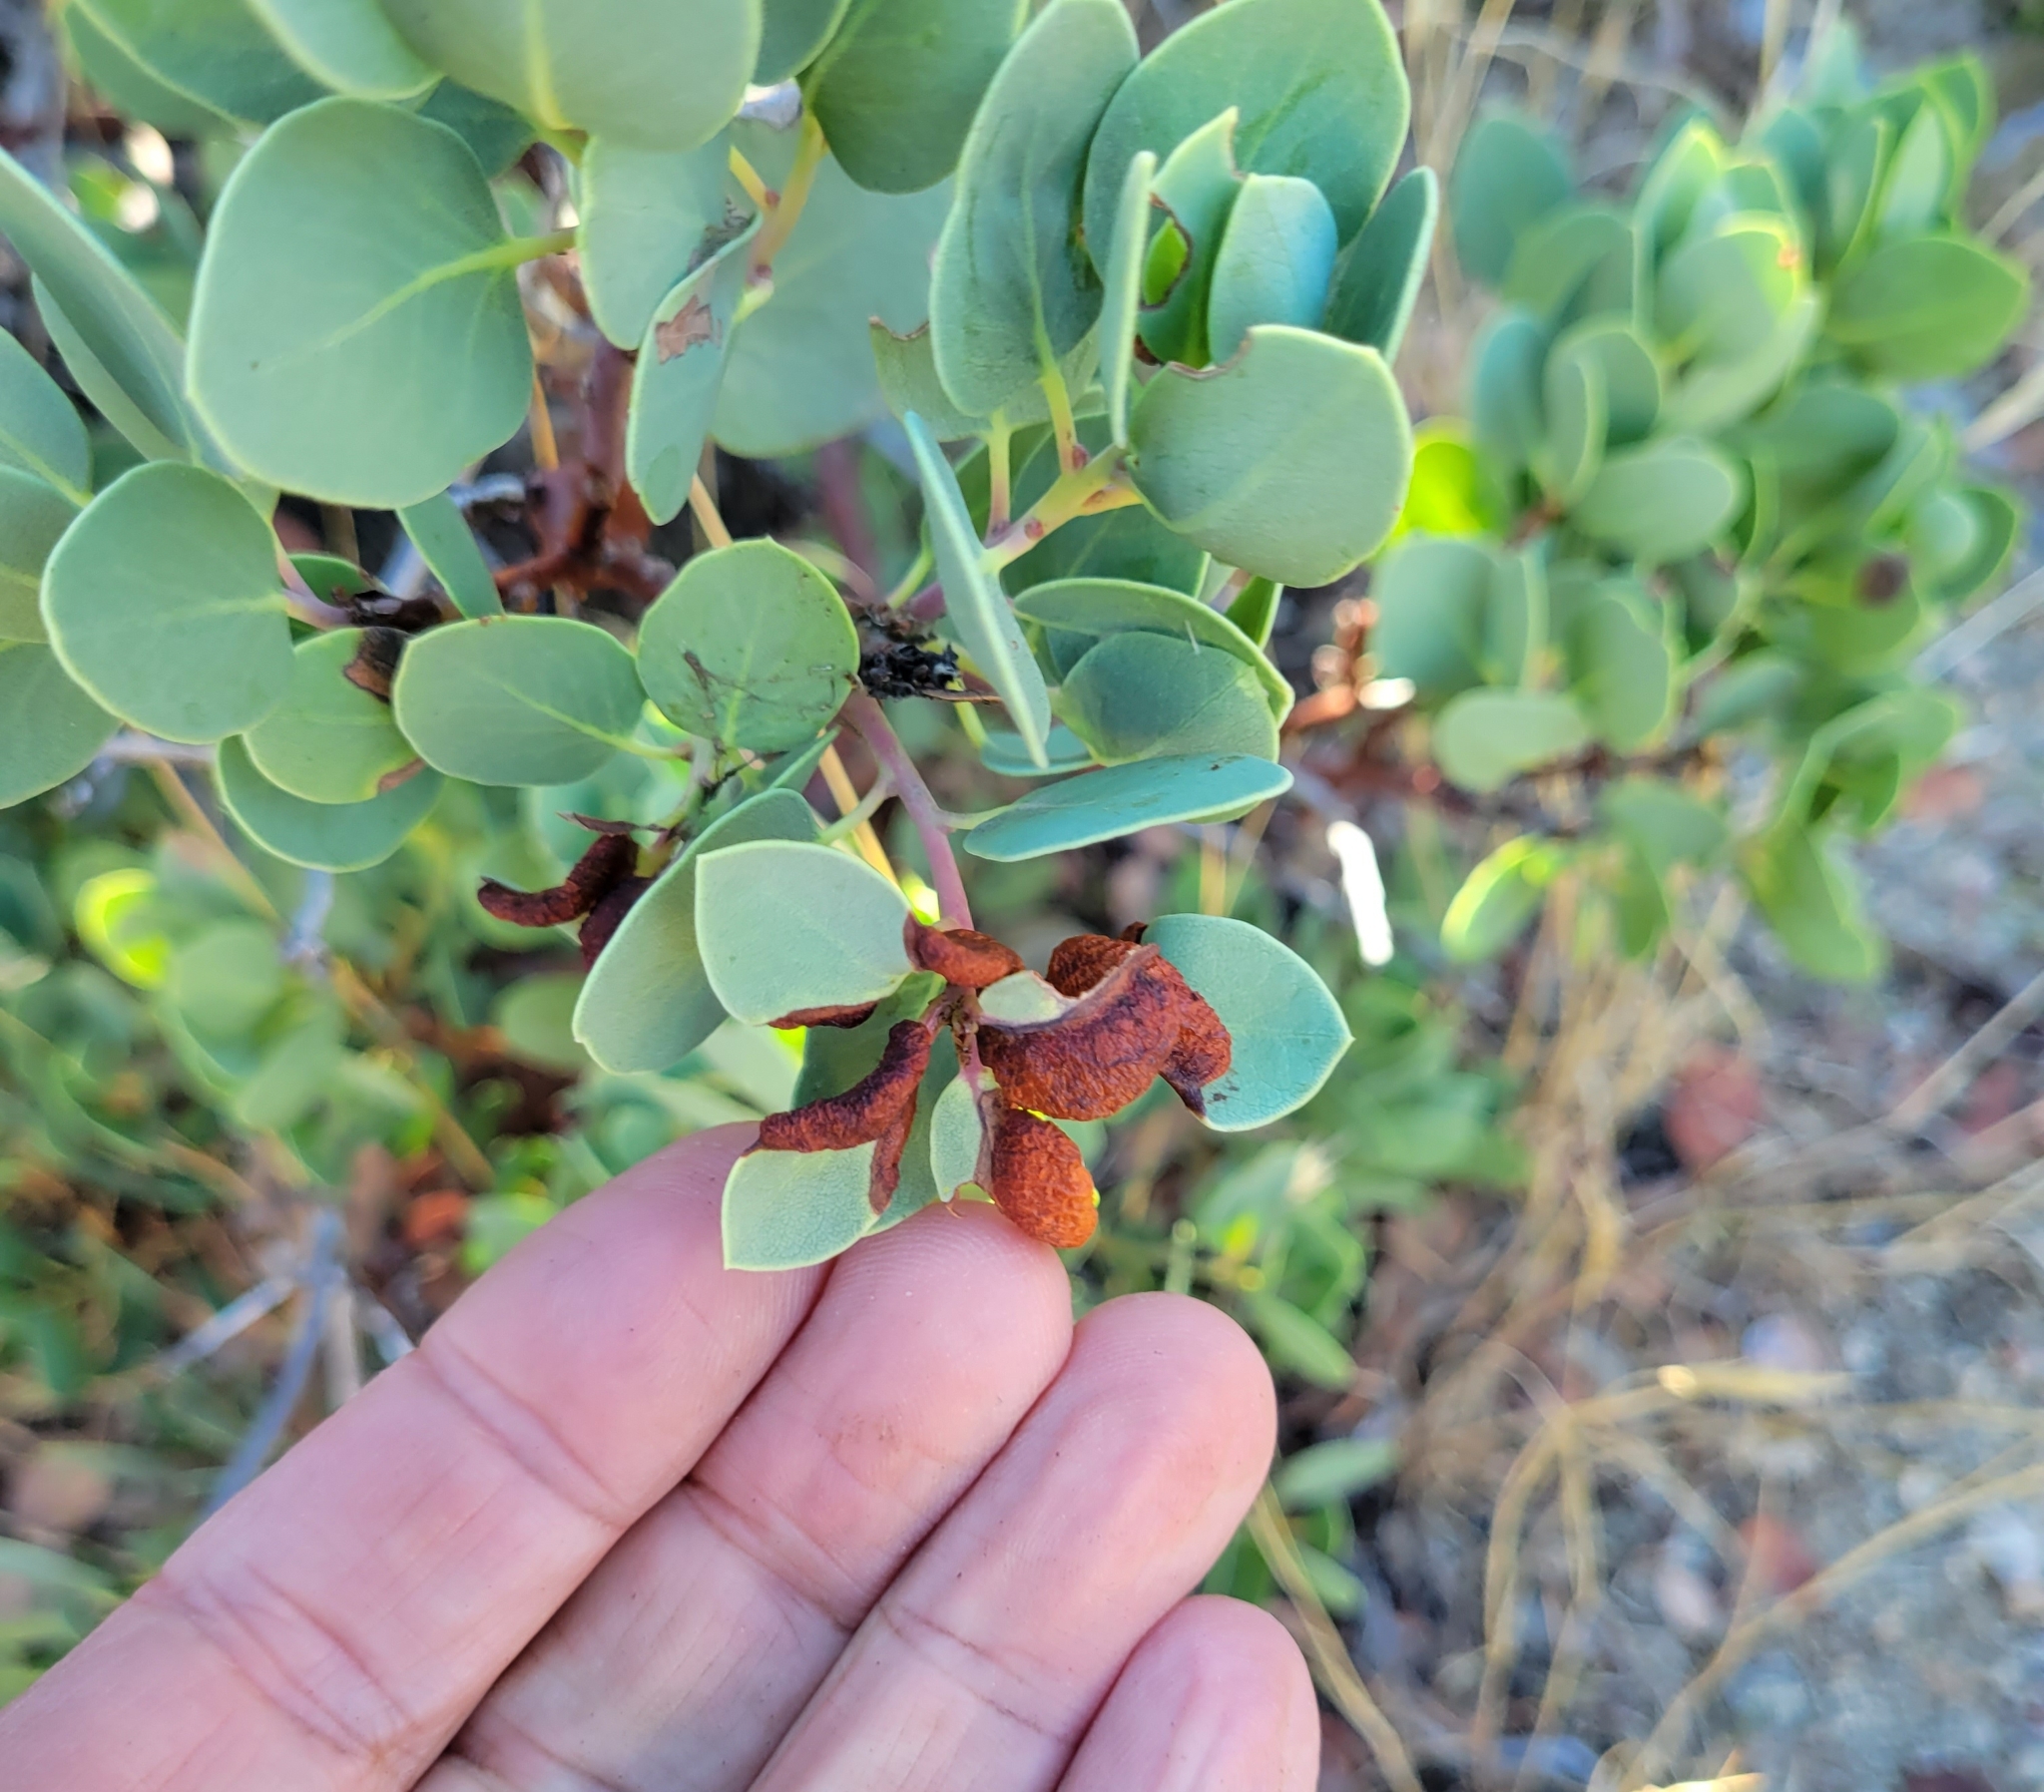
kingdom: Plantae
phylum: Tracheophyta
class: Magnoliopsida
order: Ericales
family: Ericaceae
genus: Arctostaphylos
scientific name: Arctostaphylos glauca
